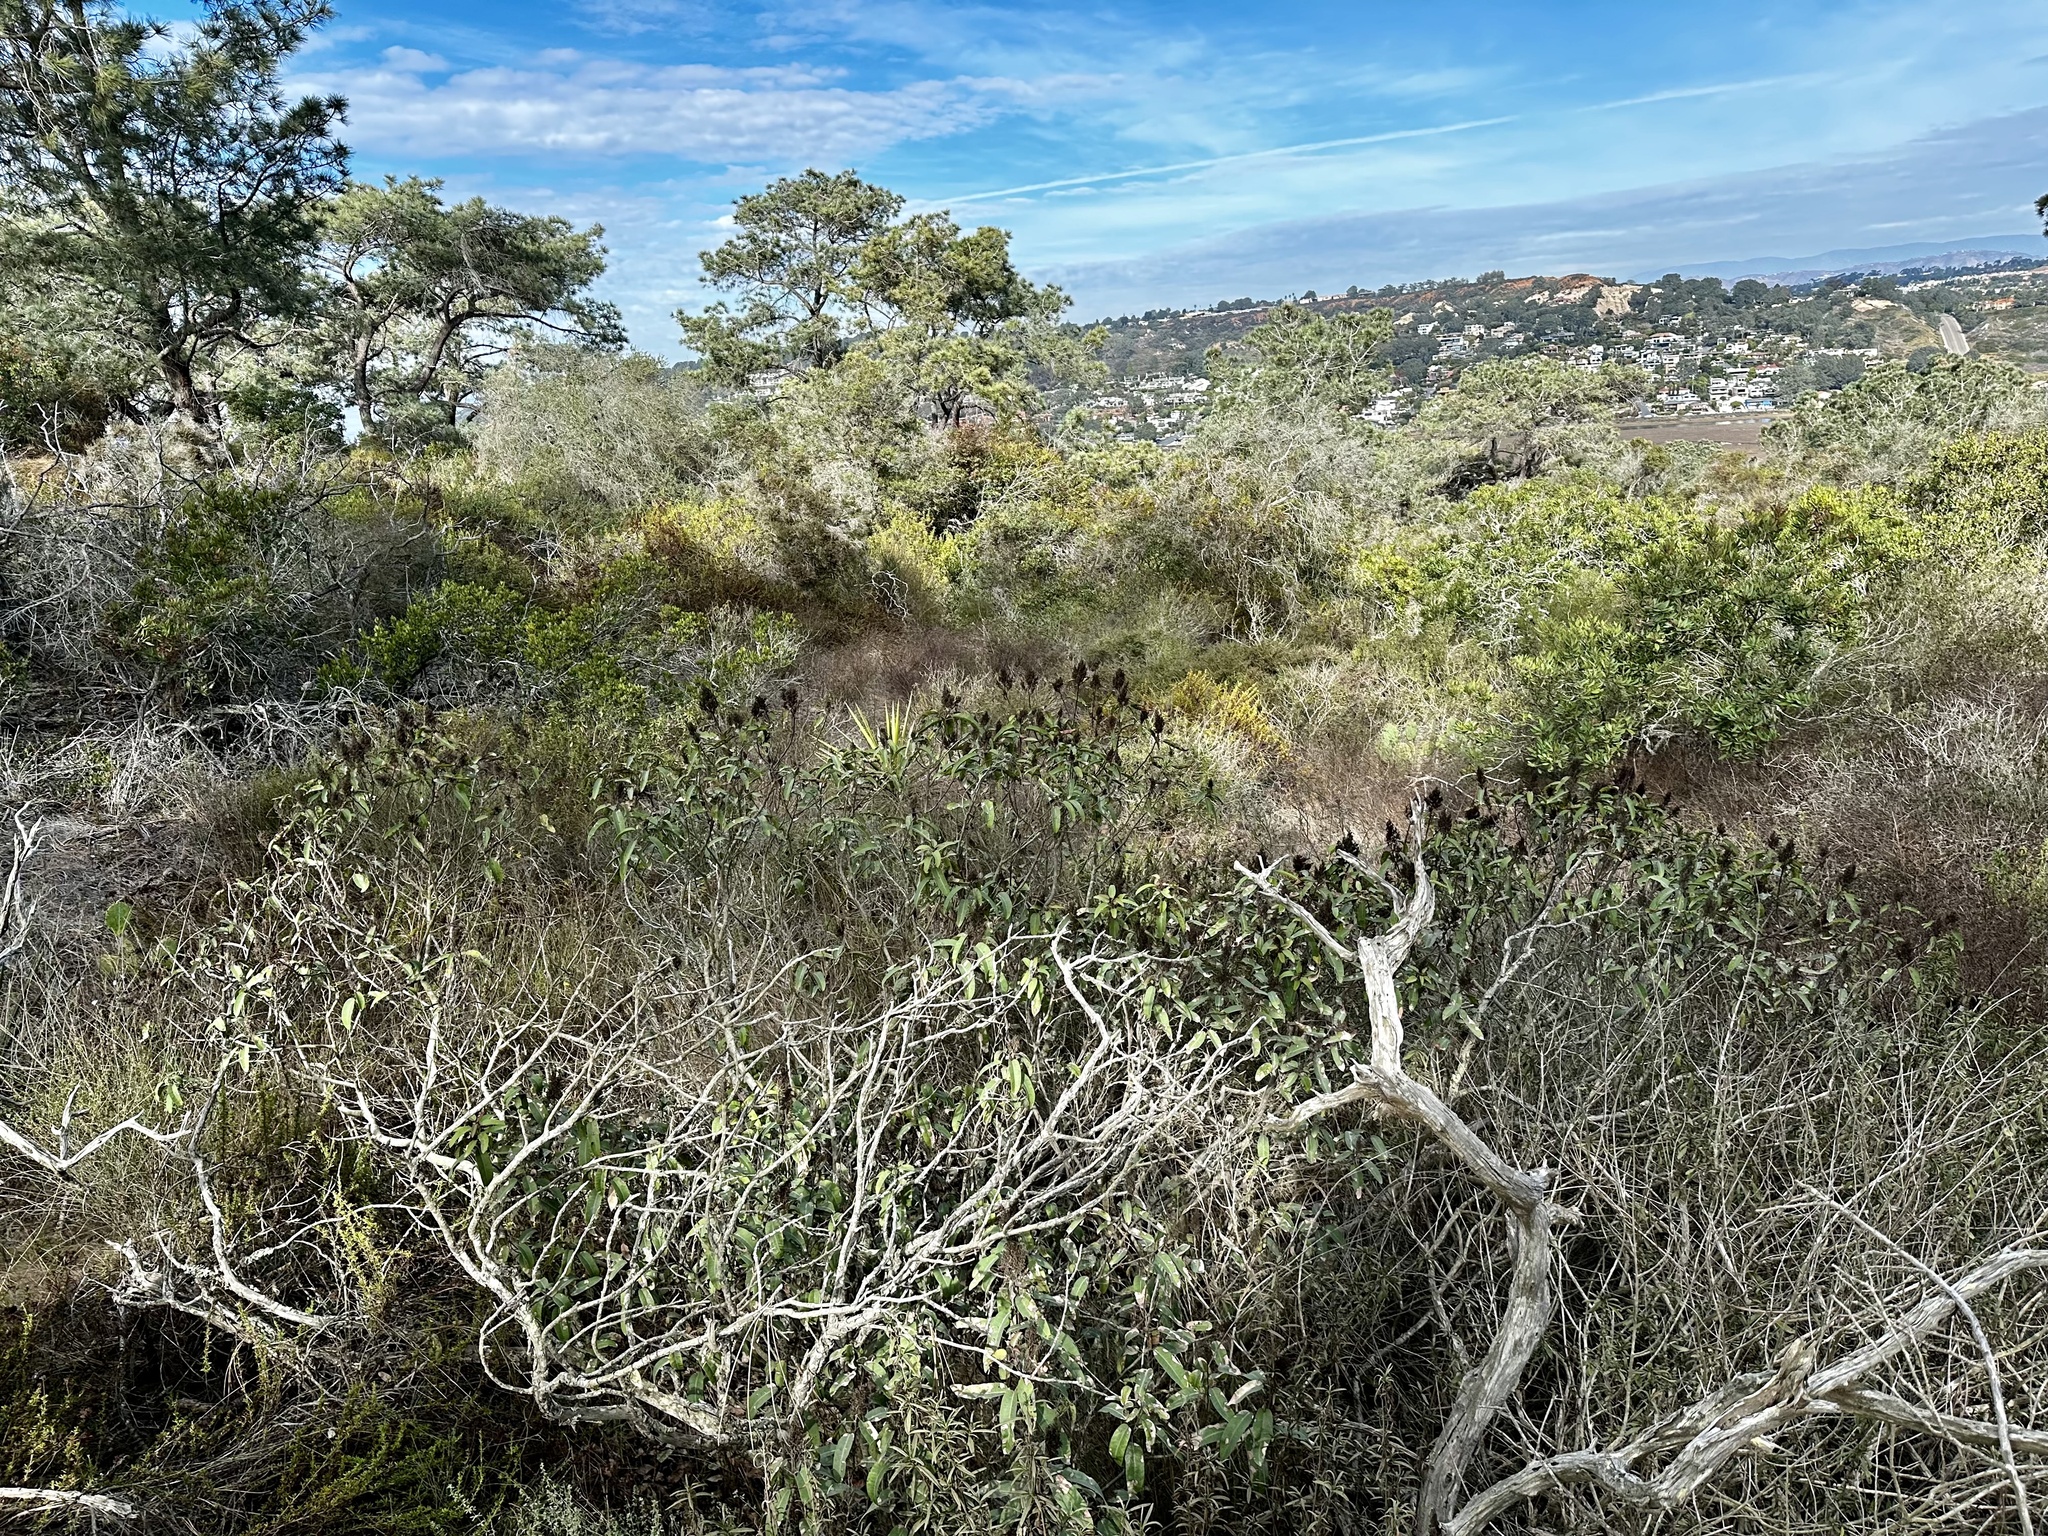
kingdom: Plantae
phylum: Tracheophyta
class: Magnoliopsida
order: Sapindales
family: Anacardiaceae
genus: Malosma
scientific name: Malosma laurina
